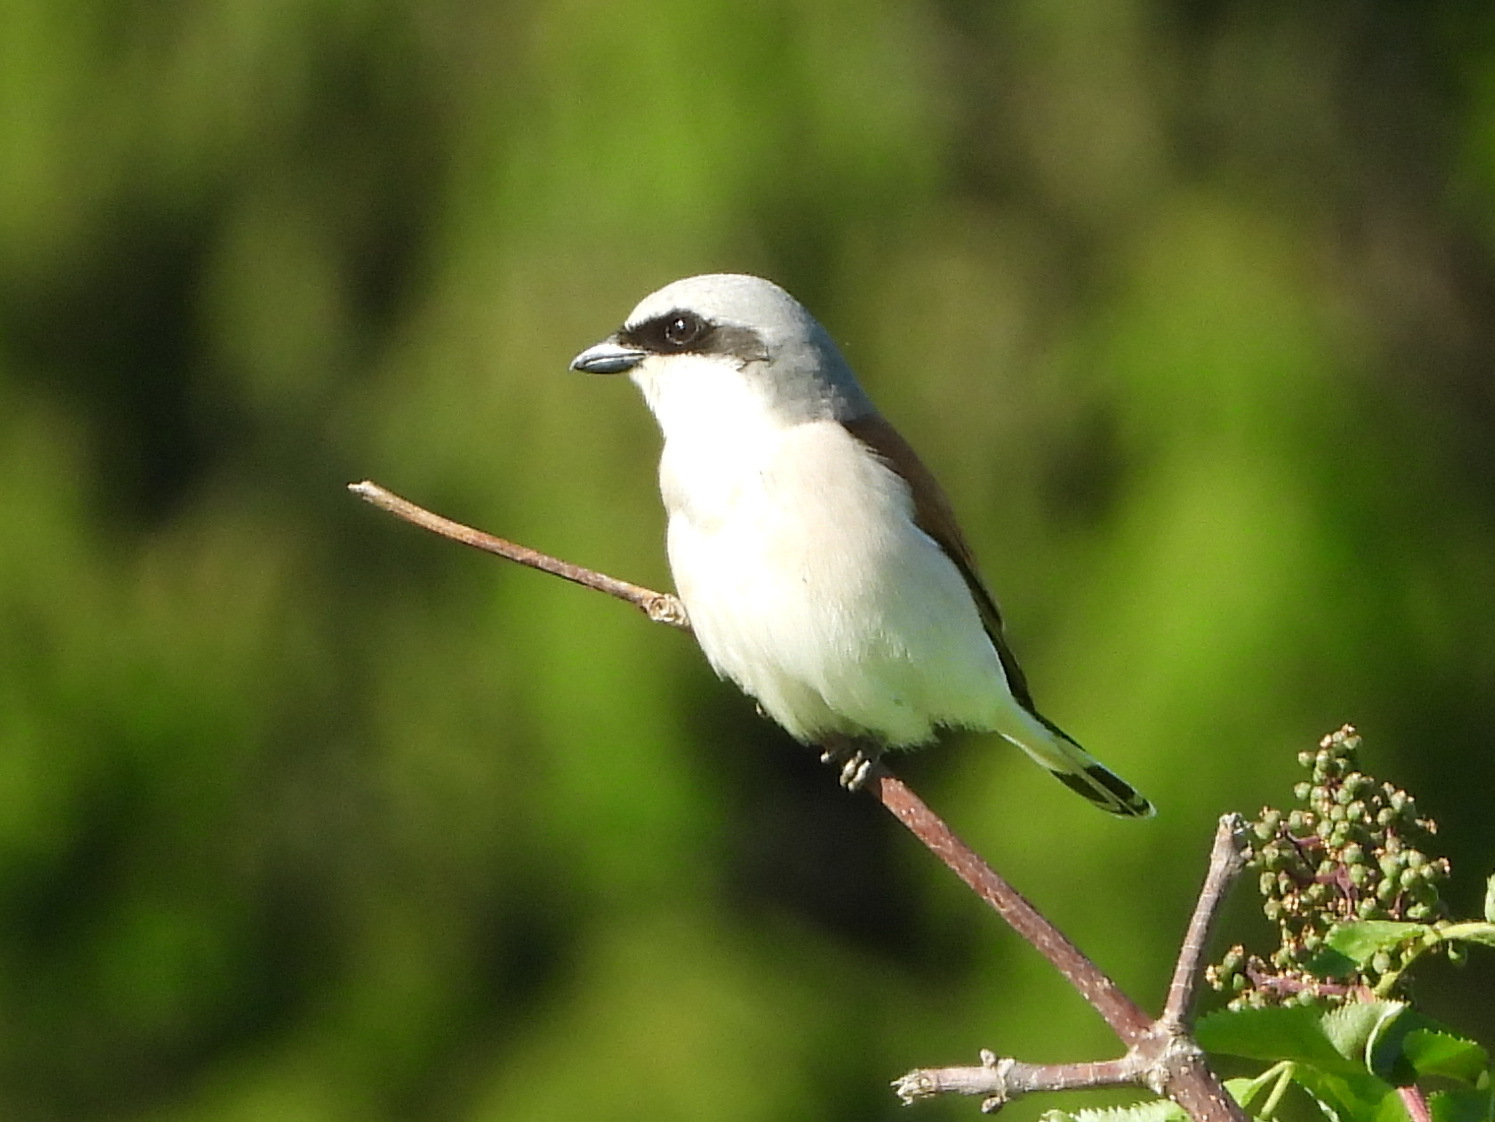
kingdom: Animalia
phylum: Chordata
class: Aves
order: Passeriformes
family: Laniidae
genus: Lanius
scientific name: Lanius collurio
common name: Red-backed shrike
